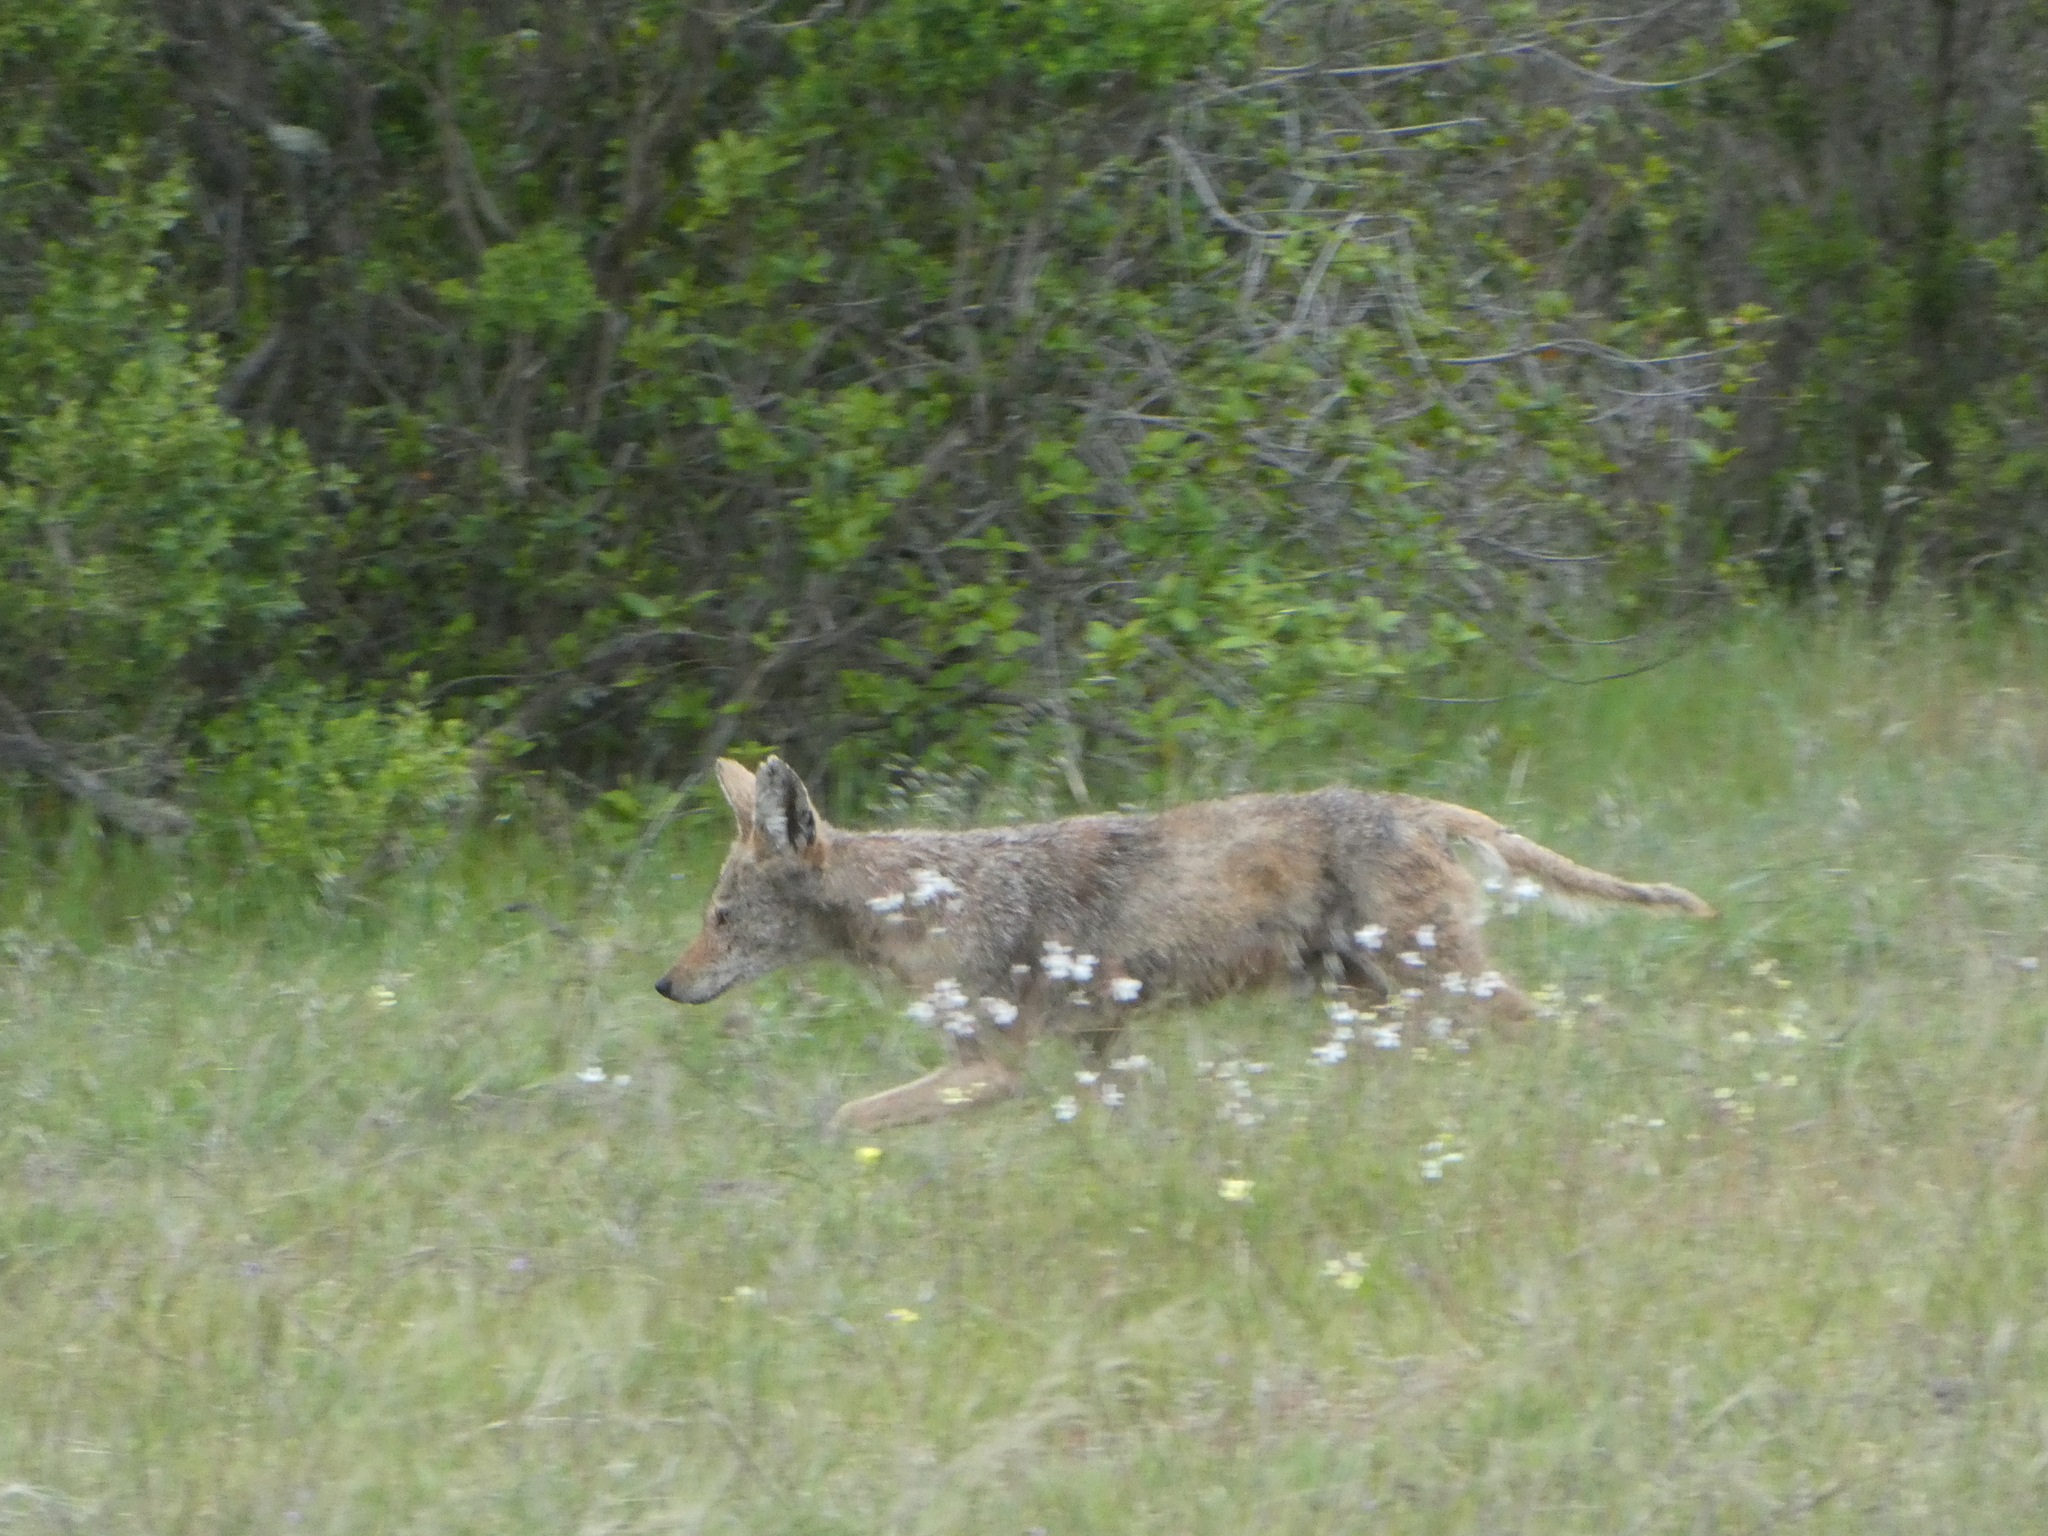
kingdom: Animalia
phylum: Chordata
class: Mammalia
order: Carnivora
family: Canidae
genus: Canis
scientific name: Canis latrans
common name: Coyote
